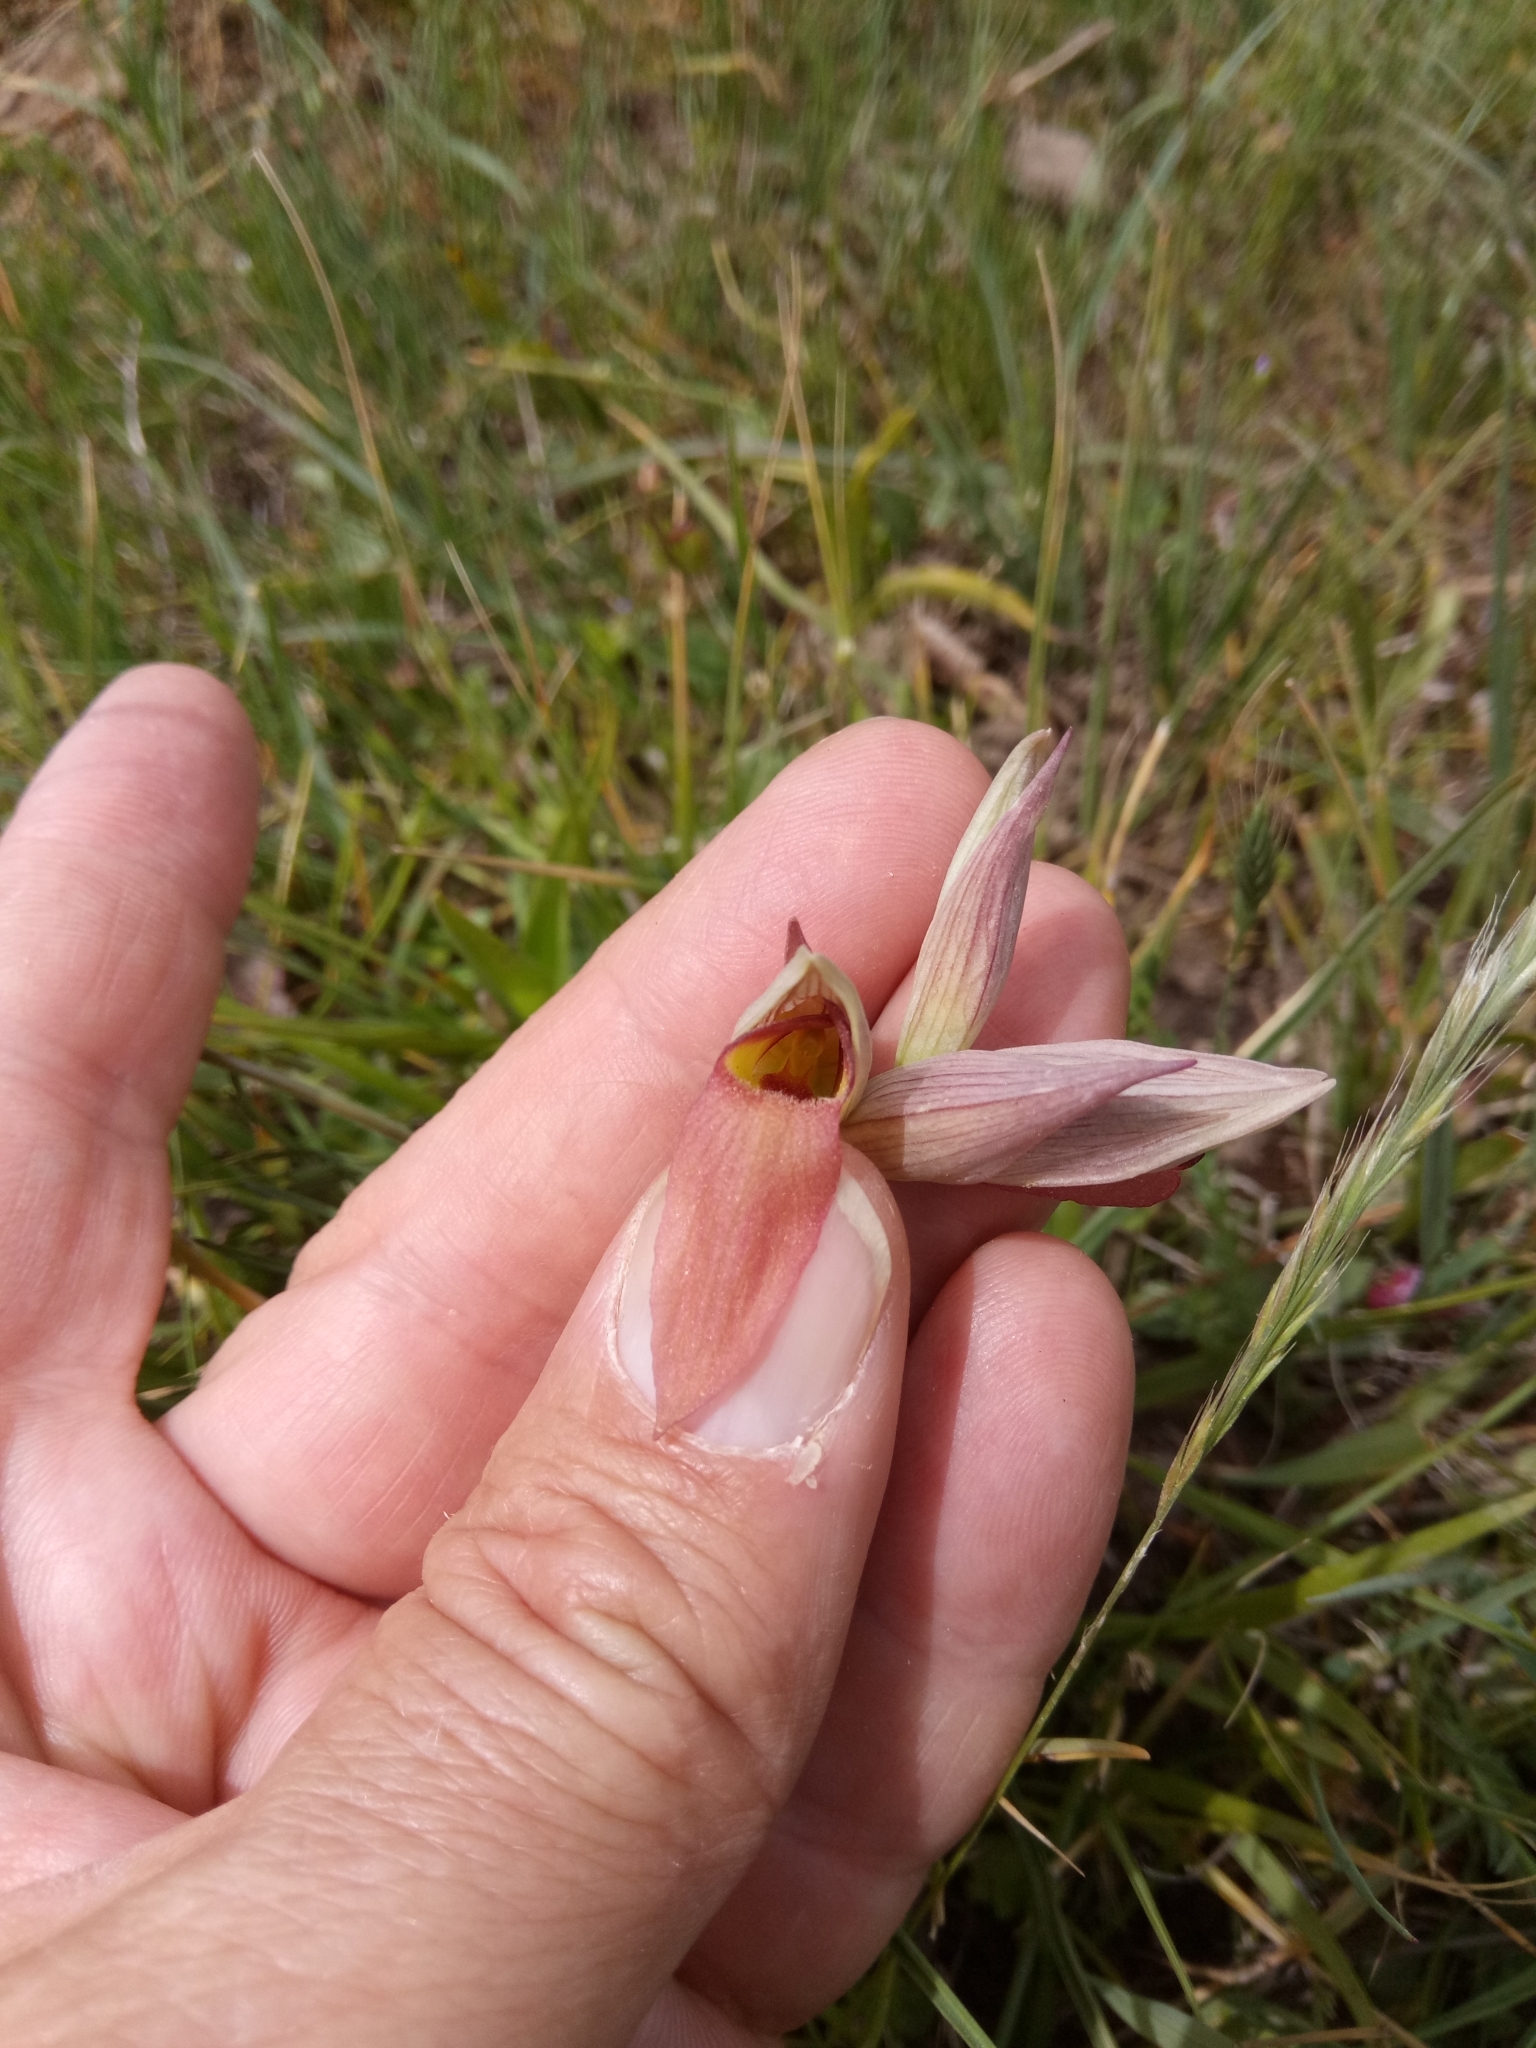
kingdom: Plantae
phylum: Tracheophyta
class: Liliopsida
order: Asparagales
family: Orchidaceae
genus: Serapias
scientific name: Serapias lingua
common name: Tongue-orchid
